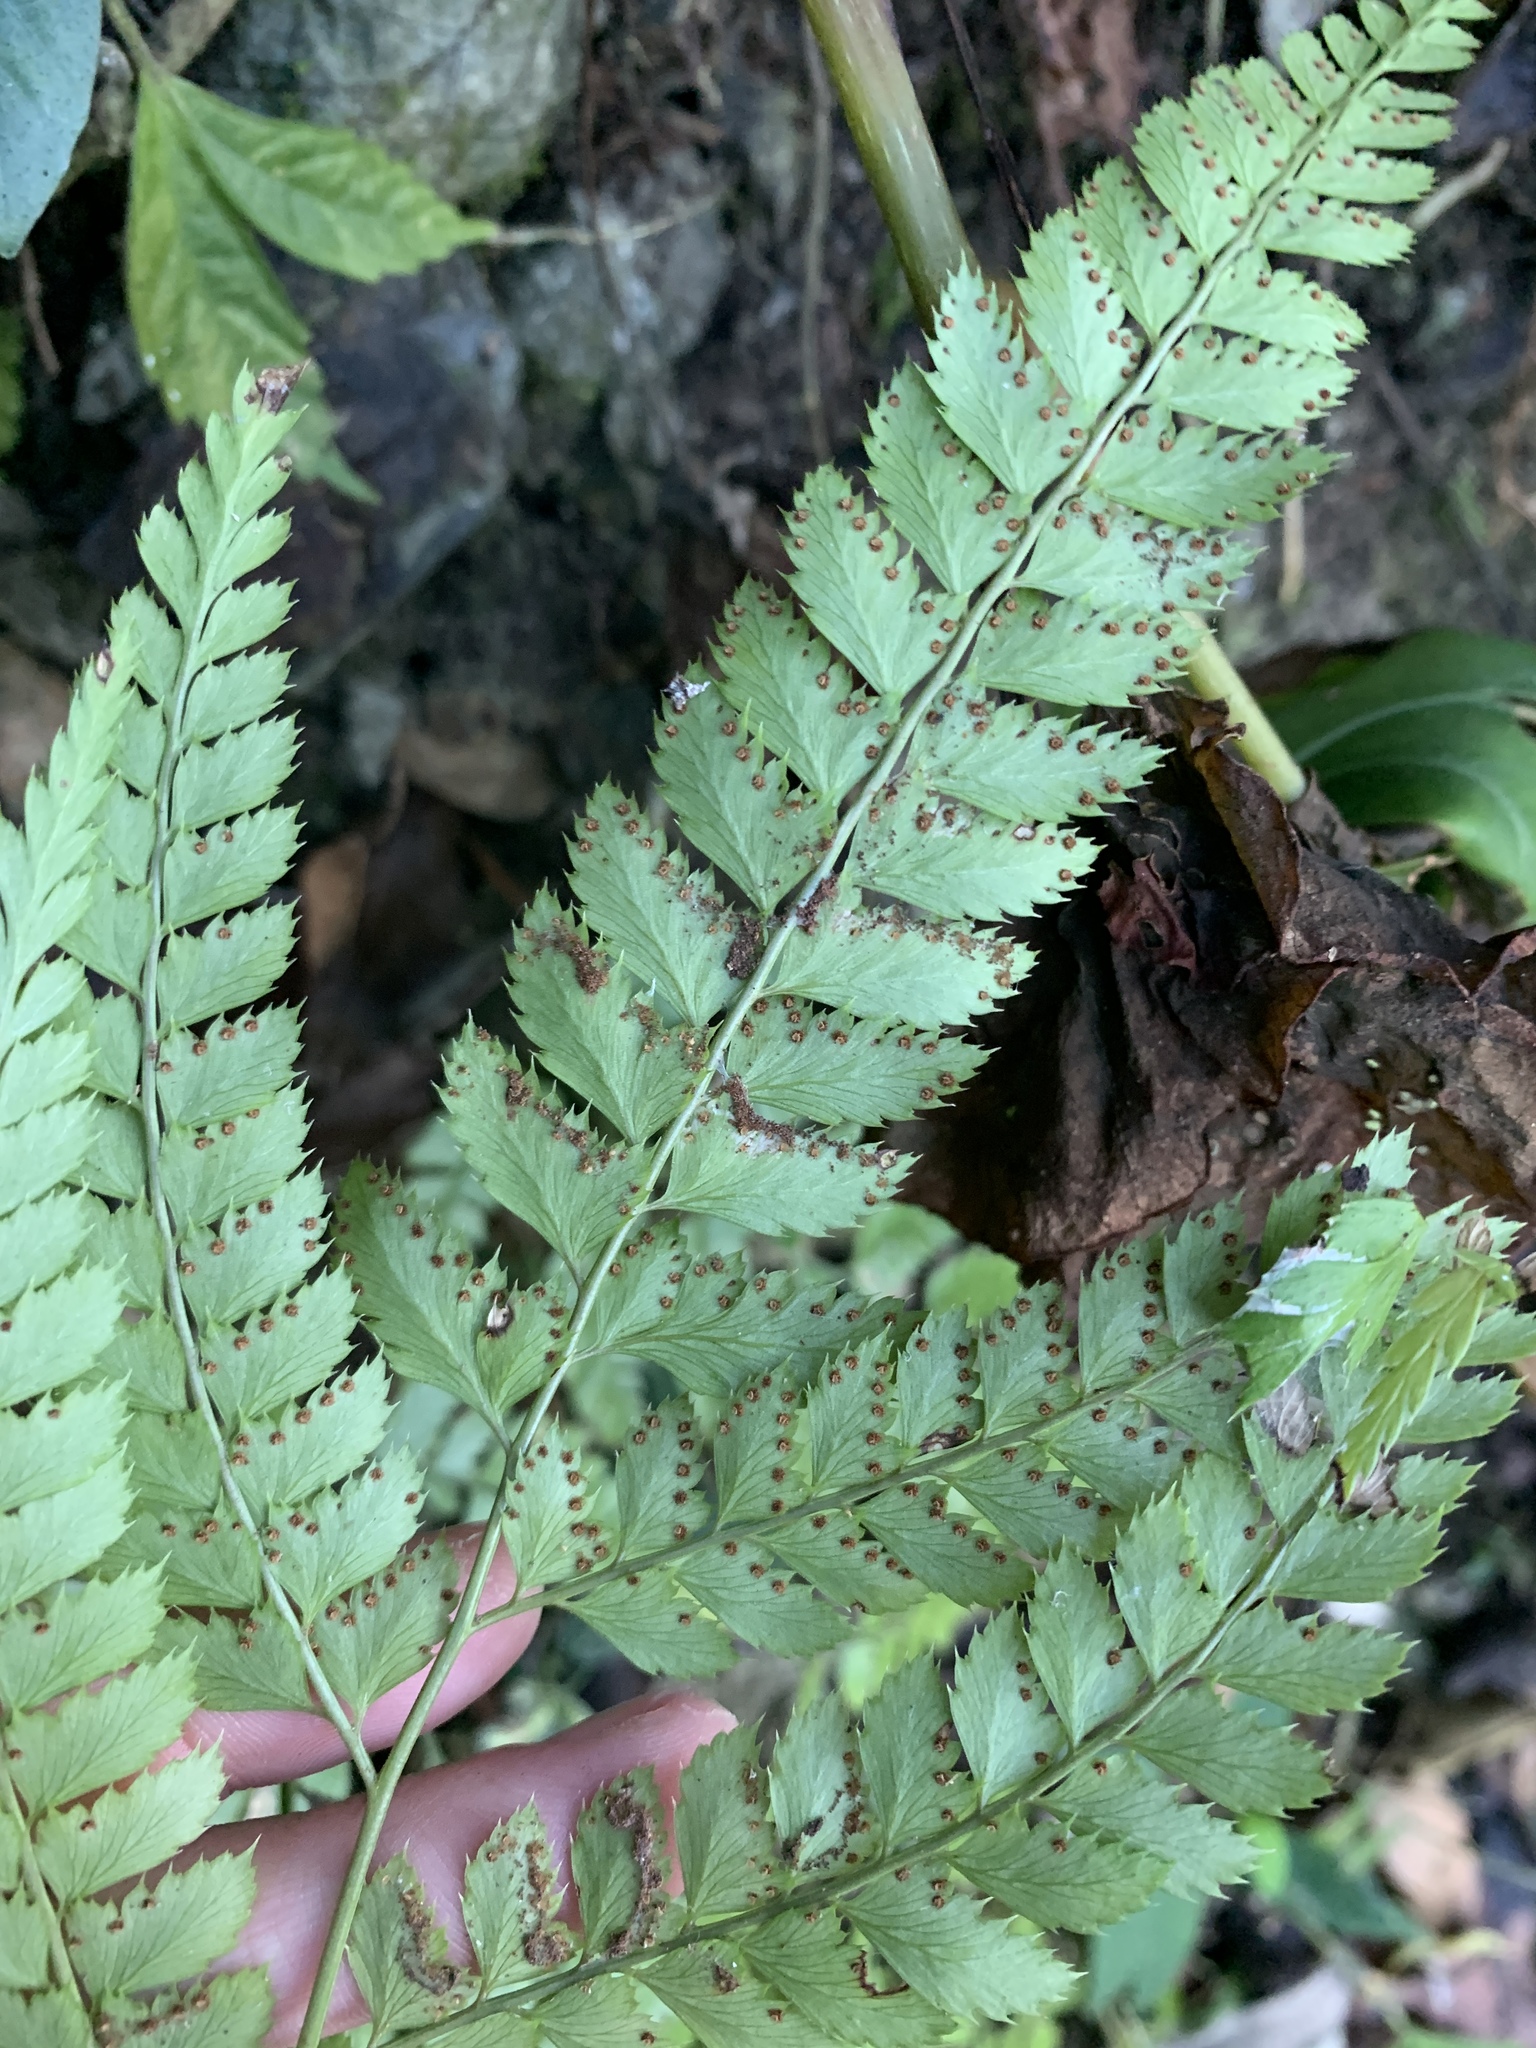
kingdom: Plantae
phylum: Tracheophyta
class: Polypodiopsida
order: Polypodiales
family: Dryopteridaceae
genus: Arachniodes
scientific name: Arachniodes amabilis
